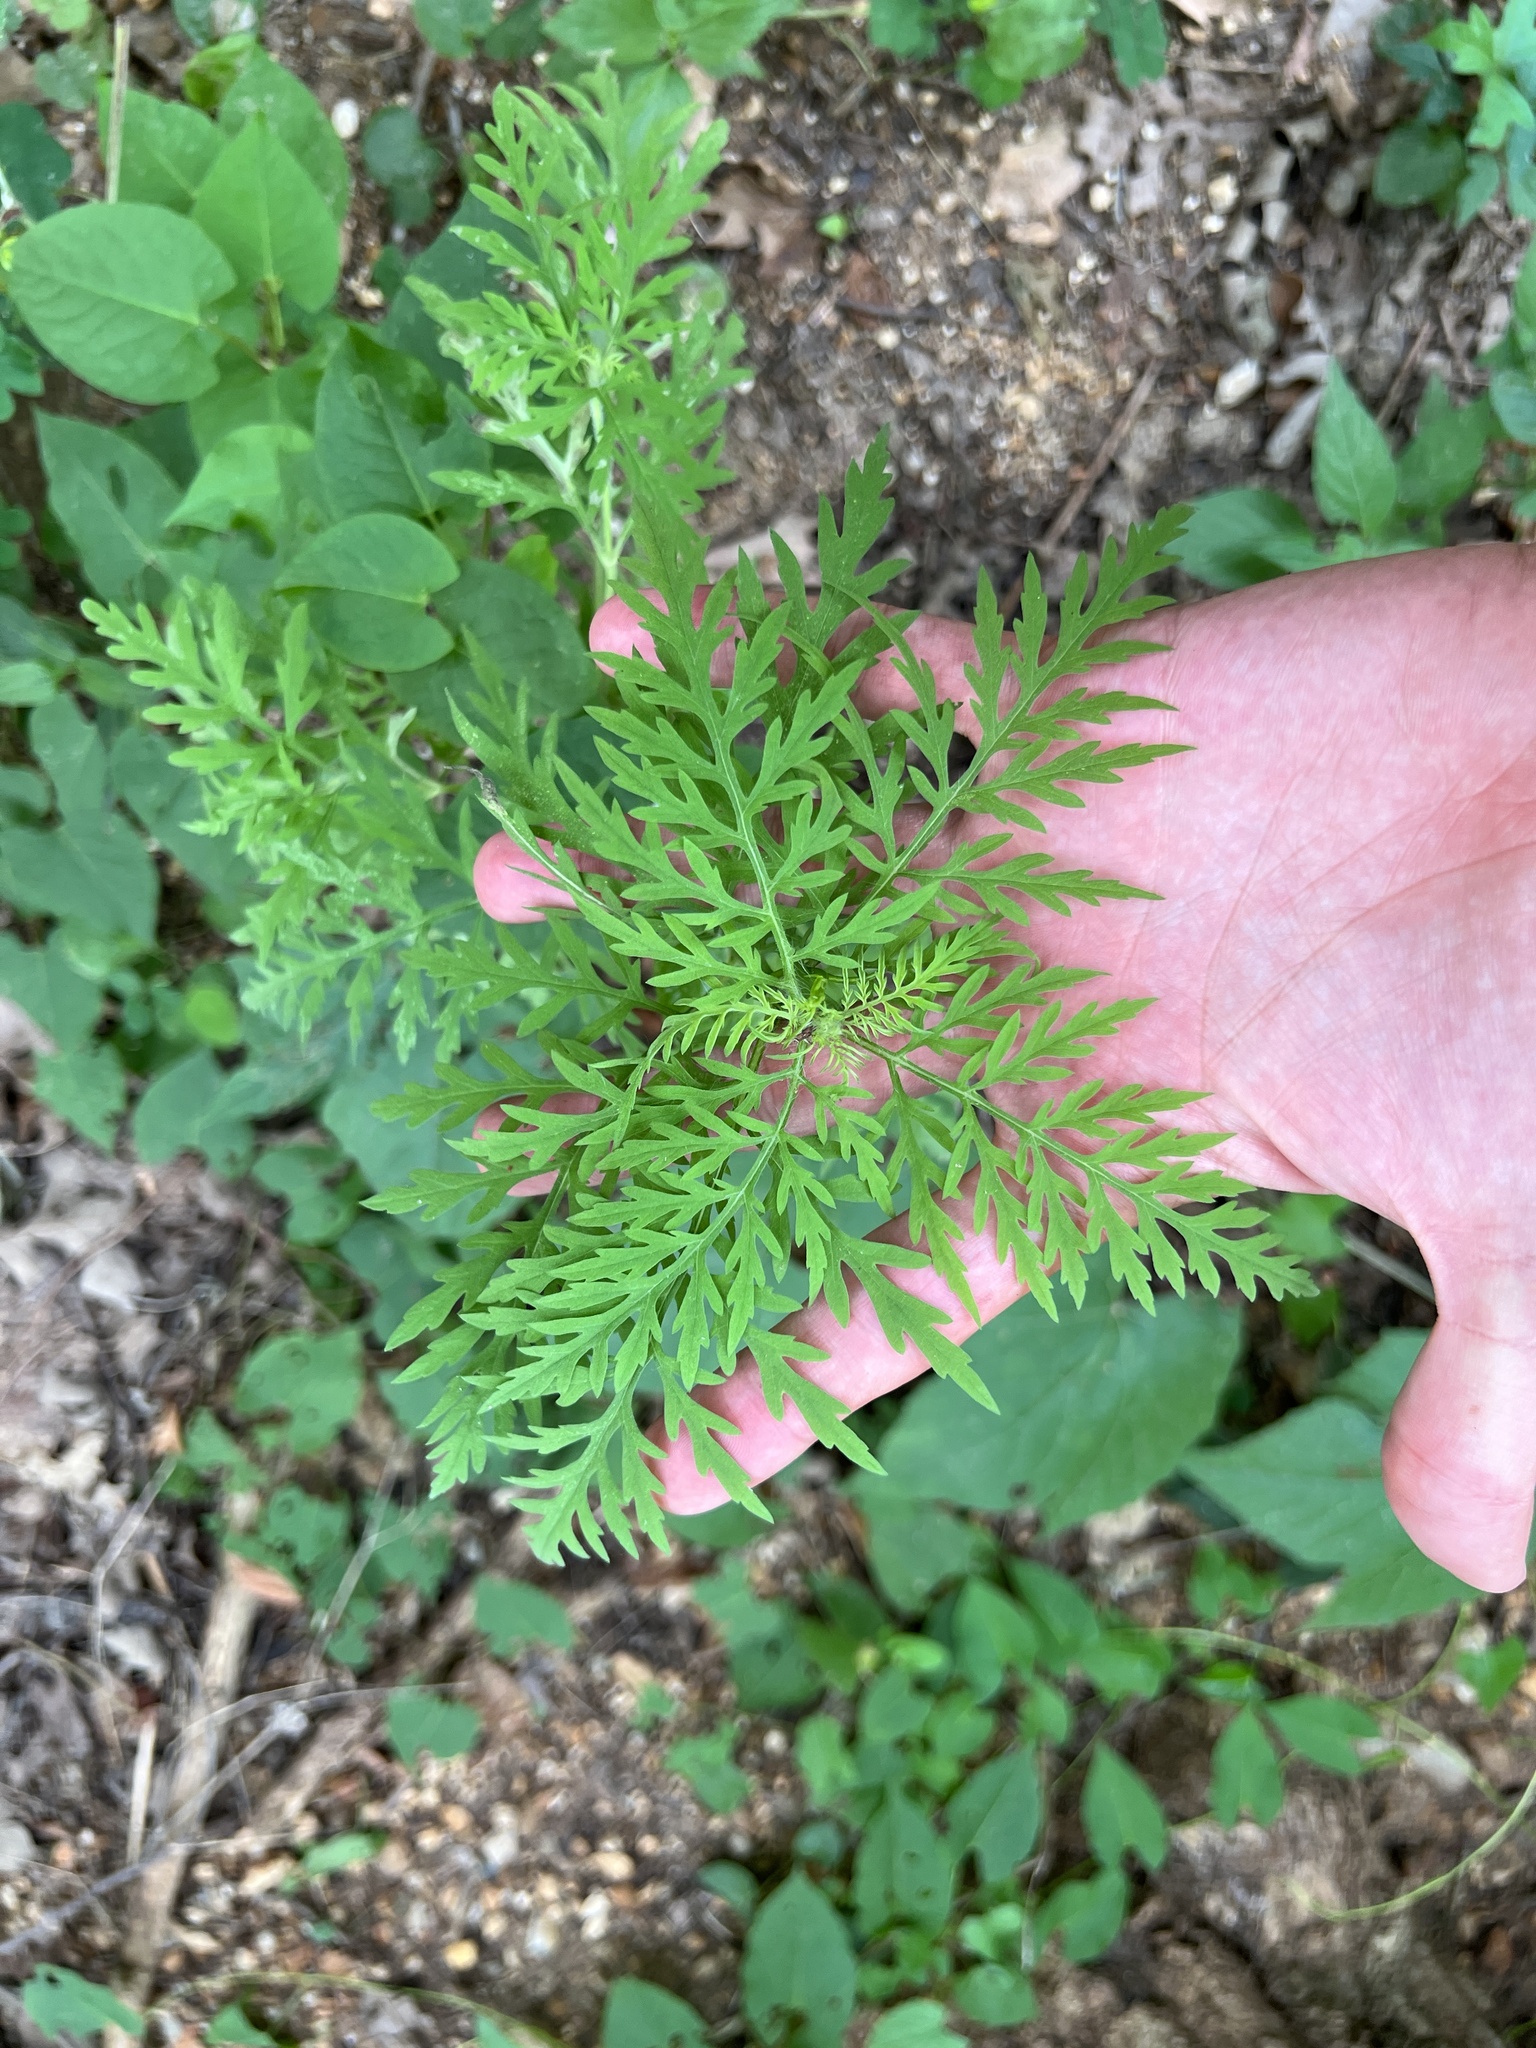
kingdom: Plantae
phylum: Tracheophyta
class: Magnoliopsida
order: Asterales
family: Asteraceae
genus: Ambrosia
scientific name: Ambrosia artemisiifolia
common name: Annual ragweed
